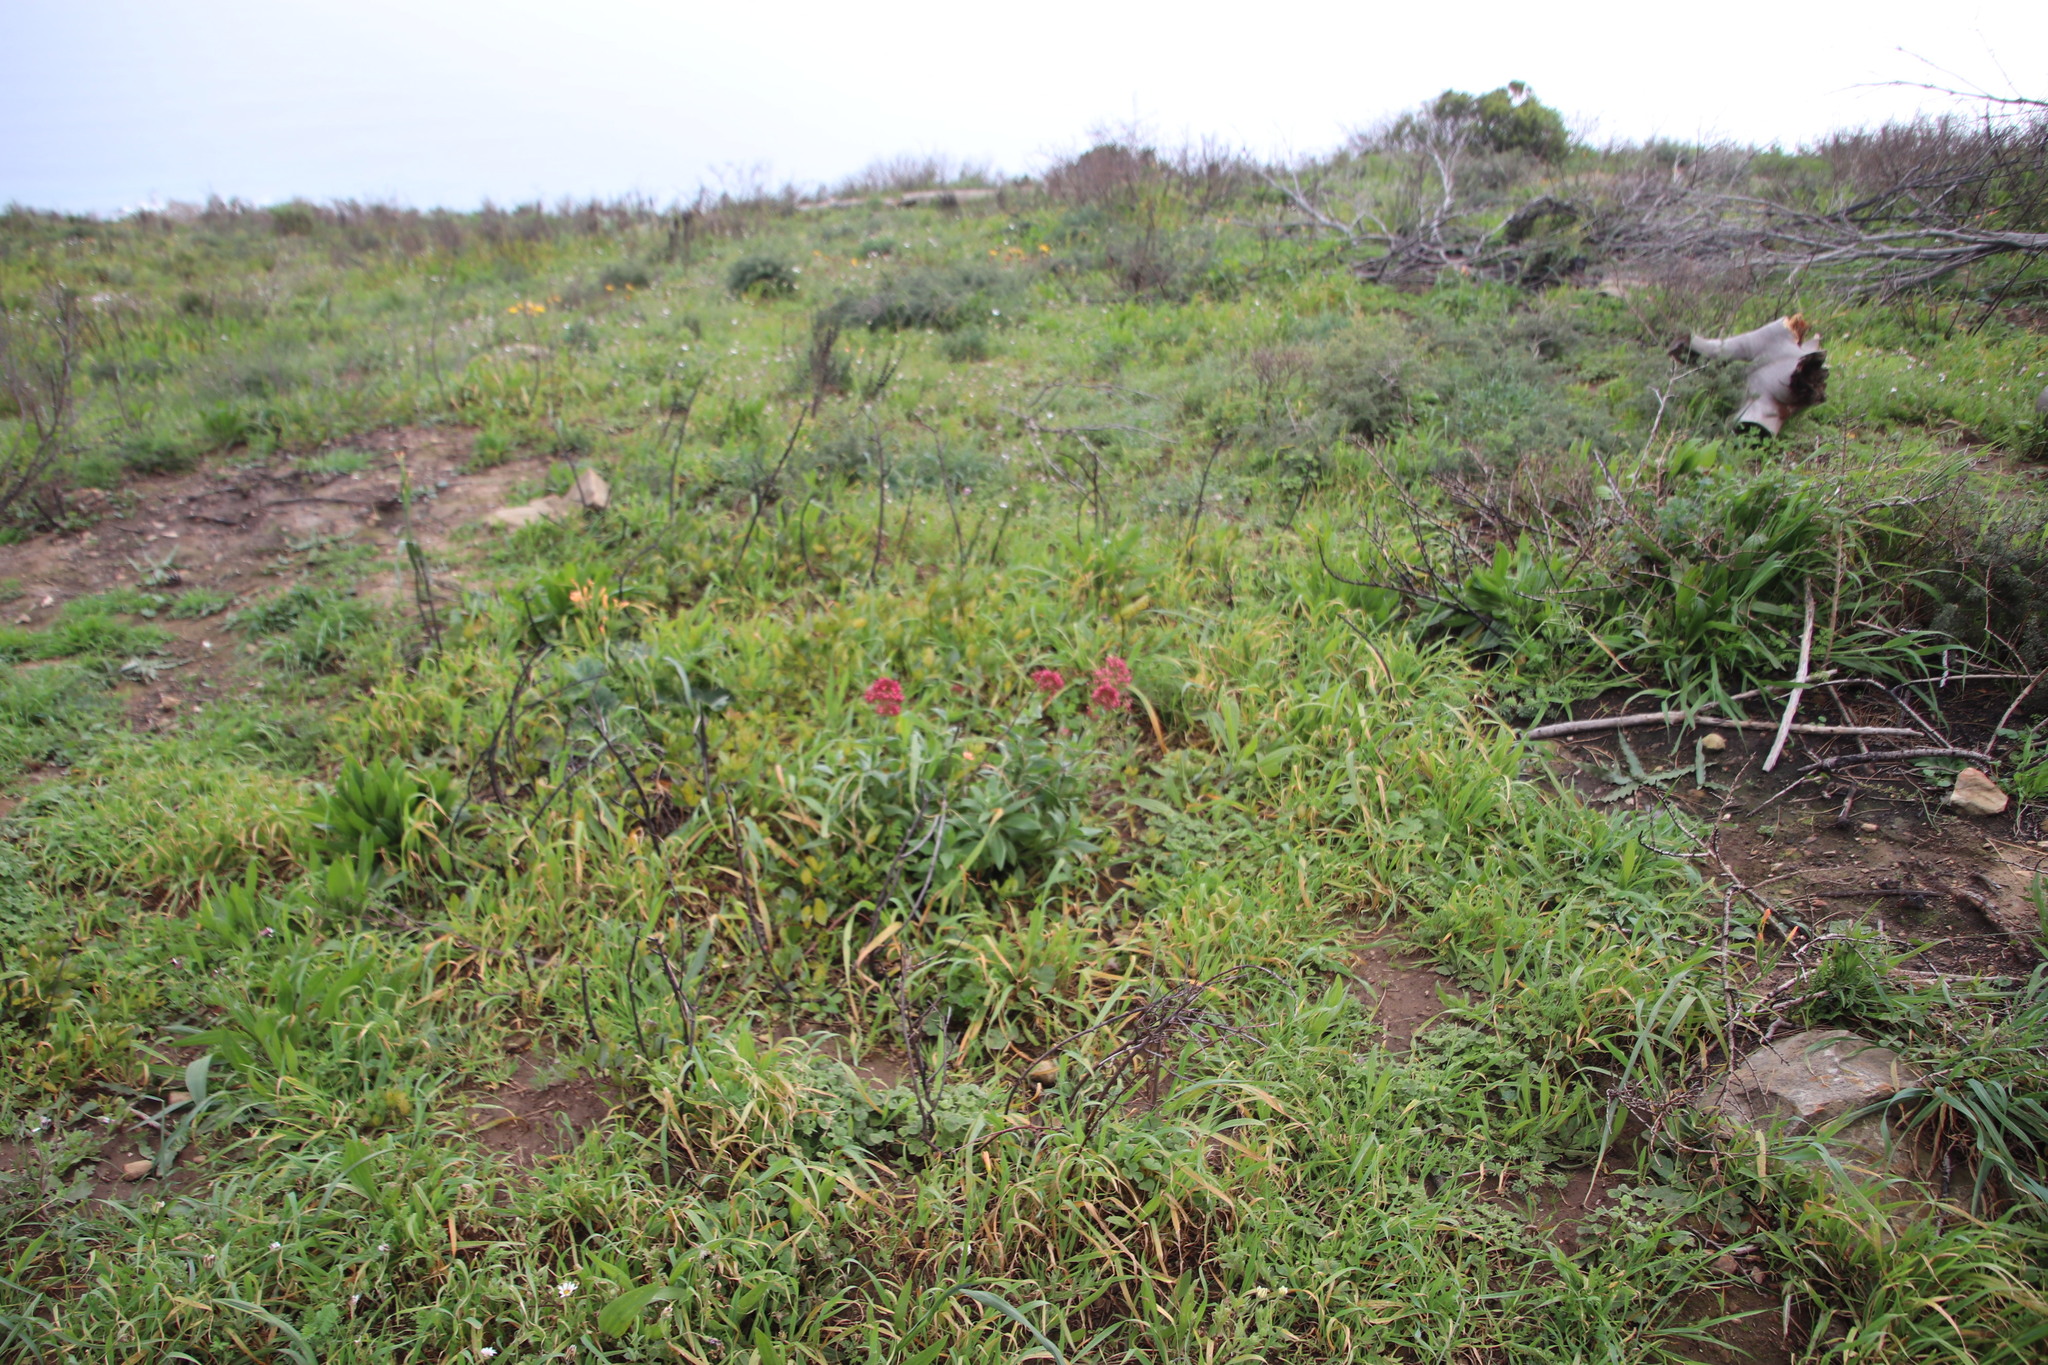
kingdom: Plantae
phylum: Tracheophyta
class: Magnoliopsida
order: Dipsacales
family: Caprifoliaceae
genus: Centranthus
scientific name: Centranthus ruber
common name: Red valerian
